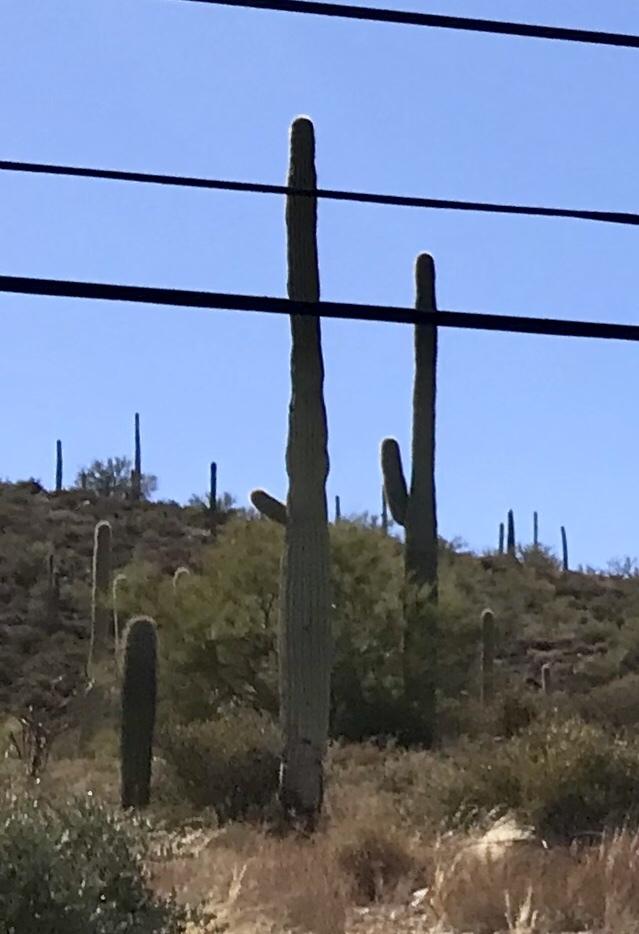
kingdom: Plantae
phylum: Tracheophyta
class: Magnoliopsida
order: Caryophyllales
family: Cactaceae
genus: Carnegiea
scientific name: Carnegiea gigantea
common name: Saguaro
